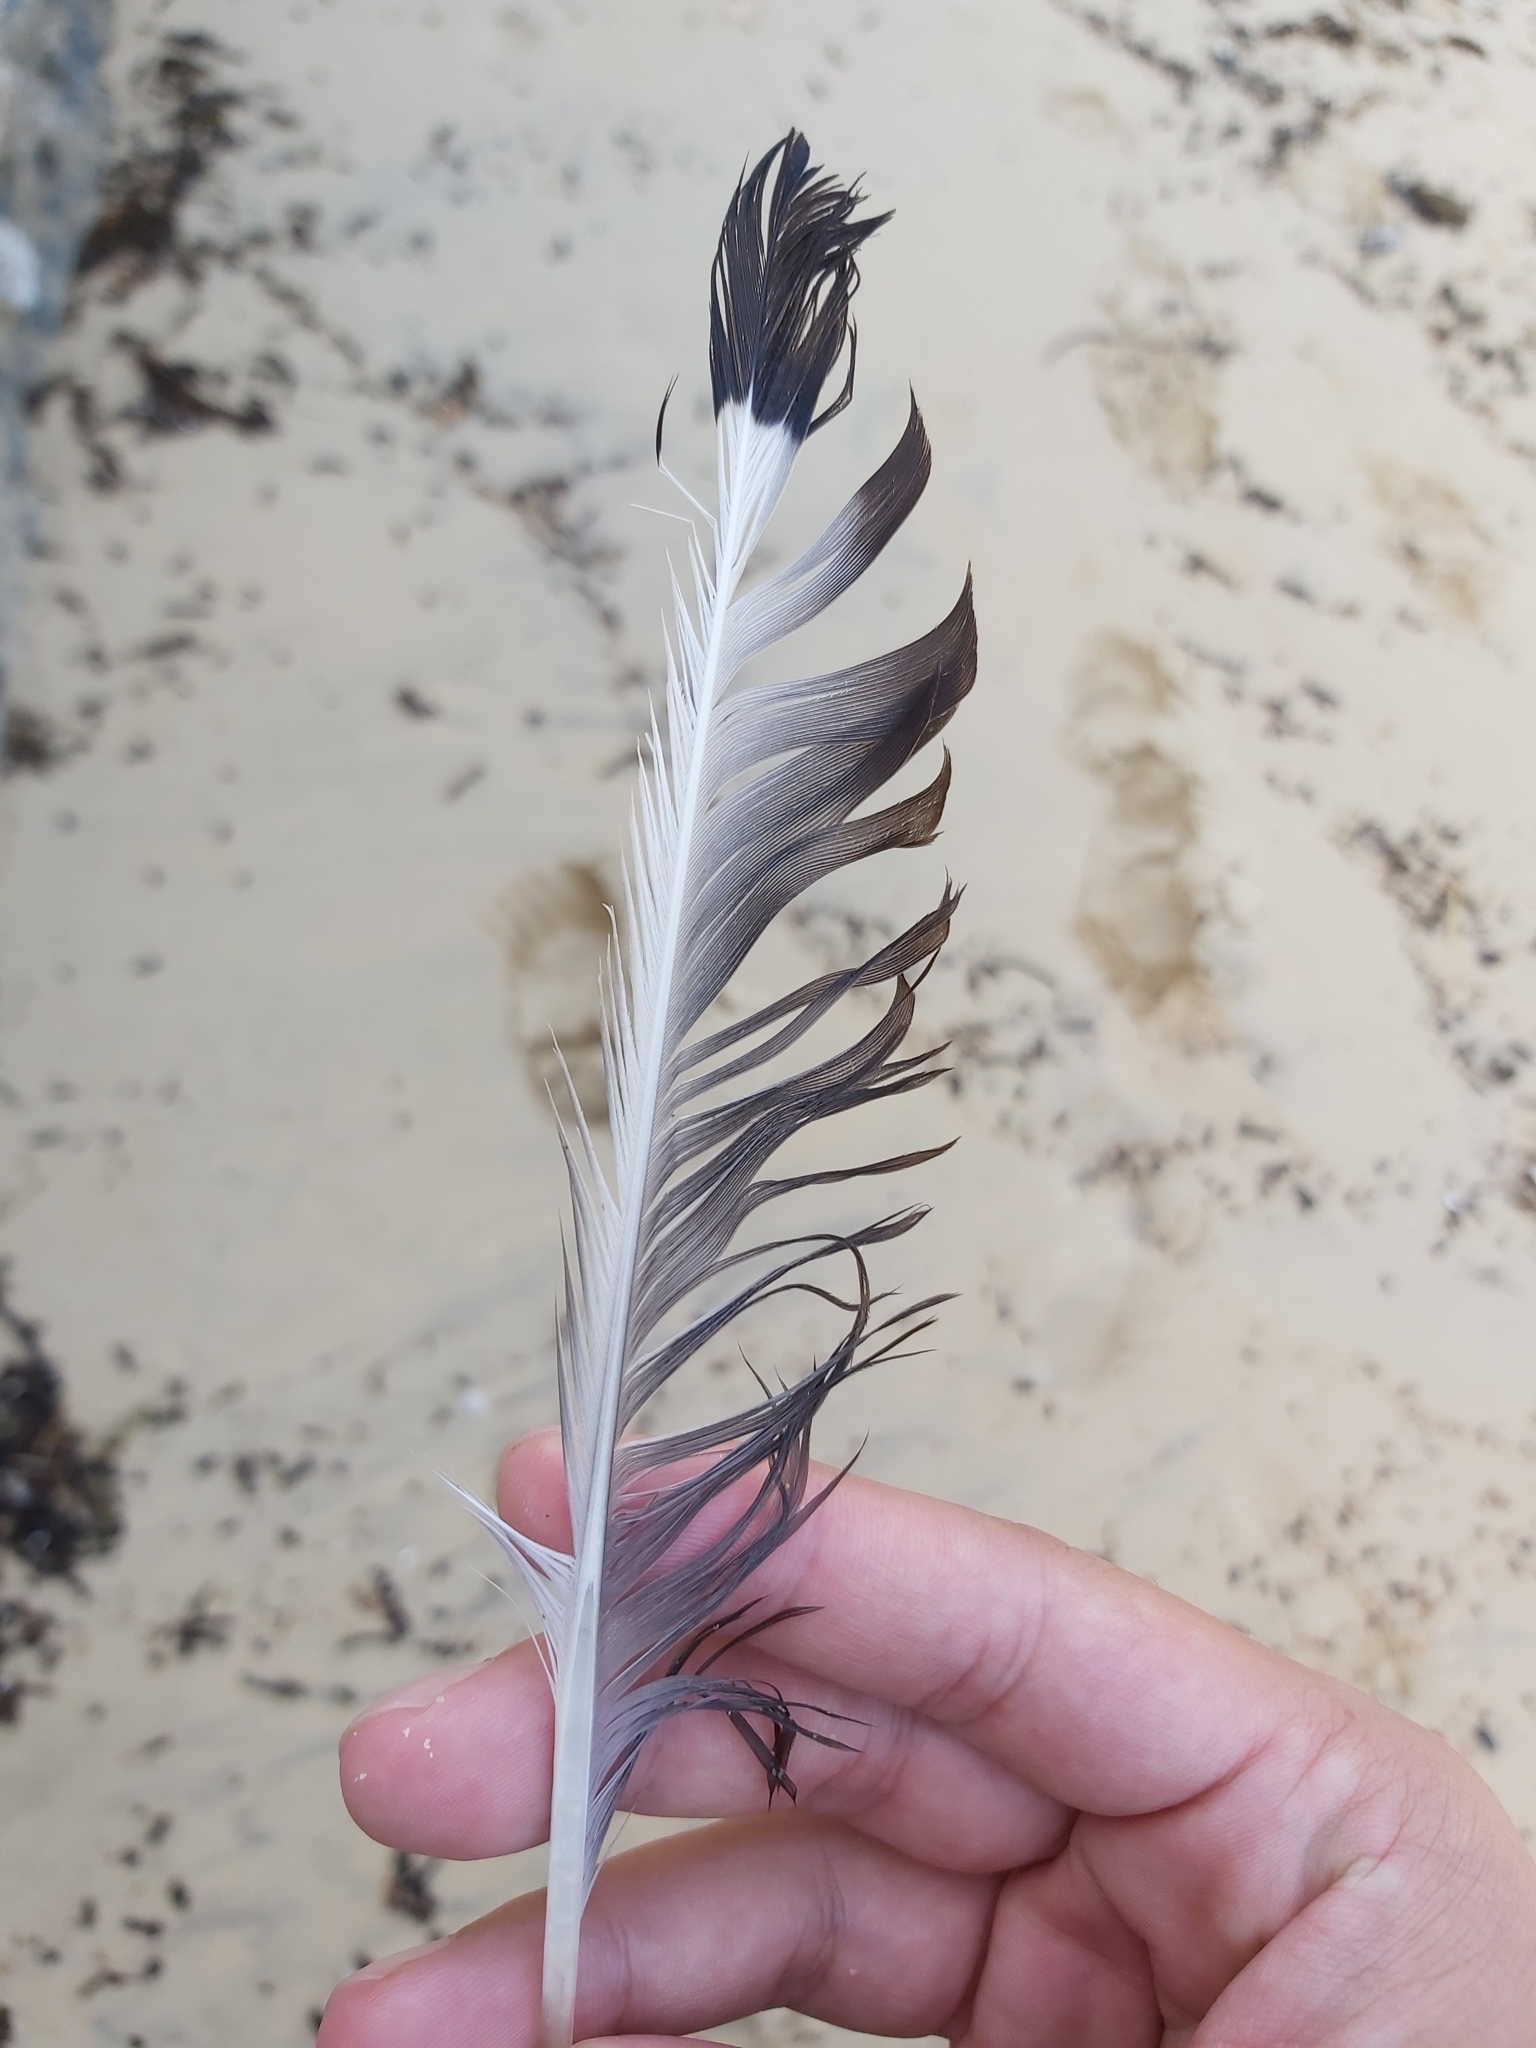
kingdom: Animalia
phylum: Chordata
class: Aves
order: Charadriiformes
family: Laridae
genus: Chroicocephalus
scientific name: Chroicocephalus novaehollandiae
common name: Silver gull
